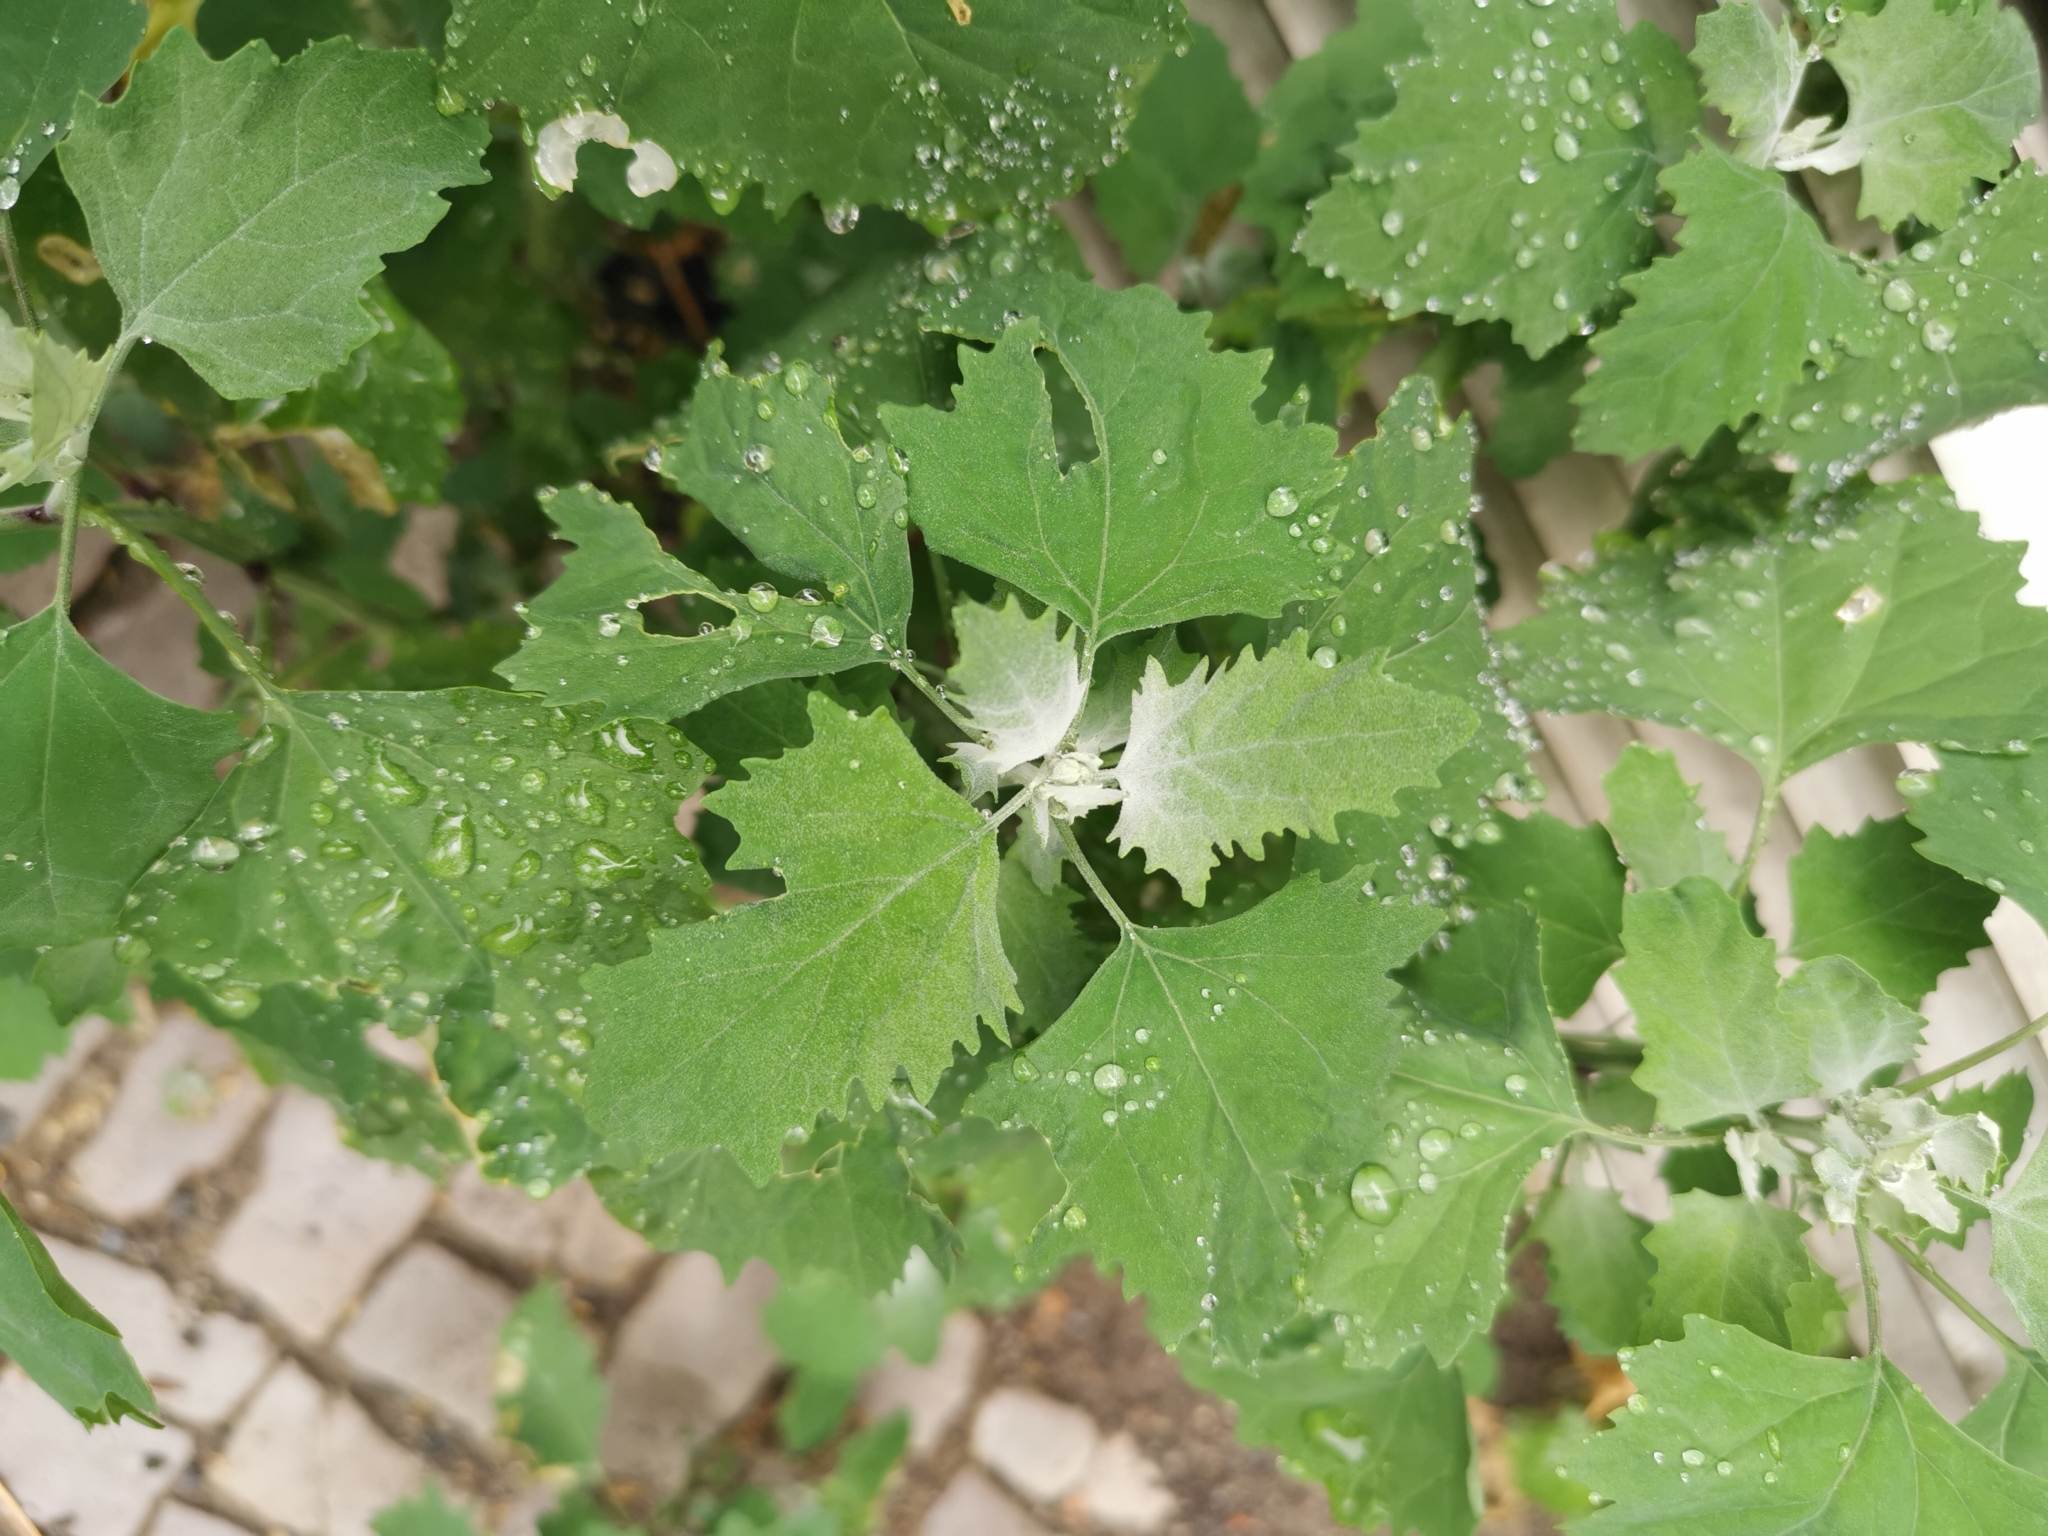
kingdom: Plantae
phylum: Tracheophyta
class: Magnoliopsida
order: Caryophyllales
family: Amaranthaceae
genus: Chenopodium
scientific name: Chenopodium album
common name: Fat-hen
